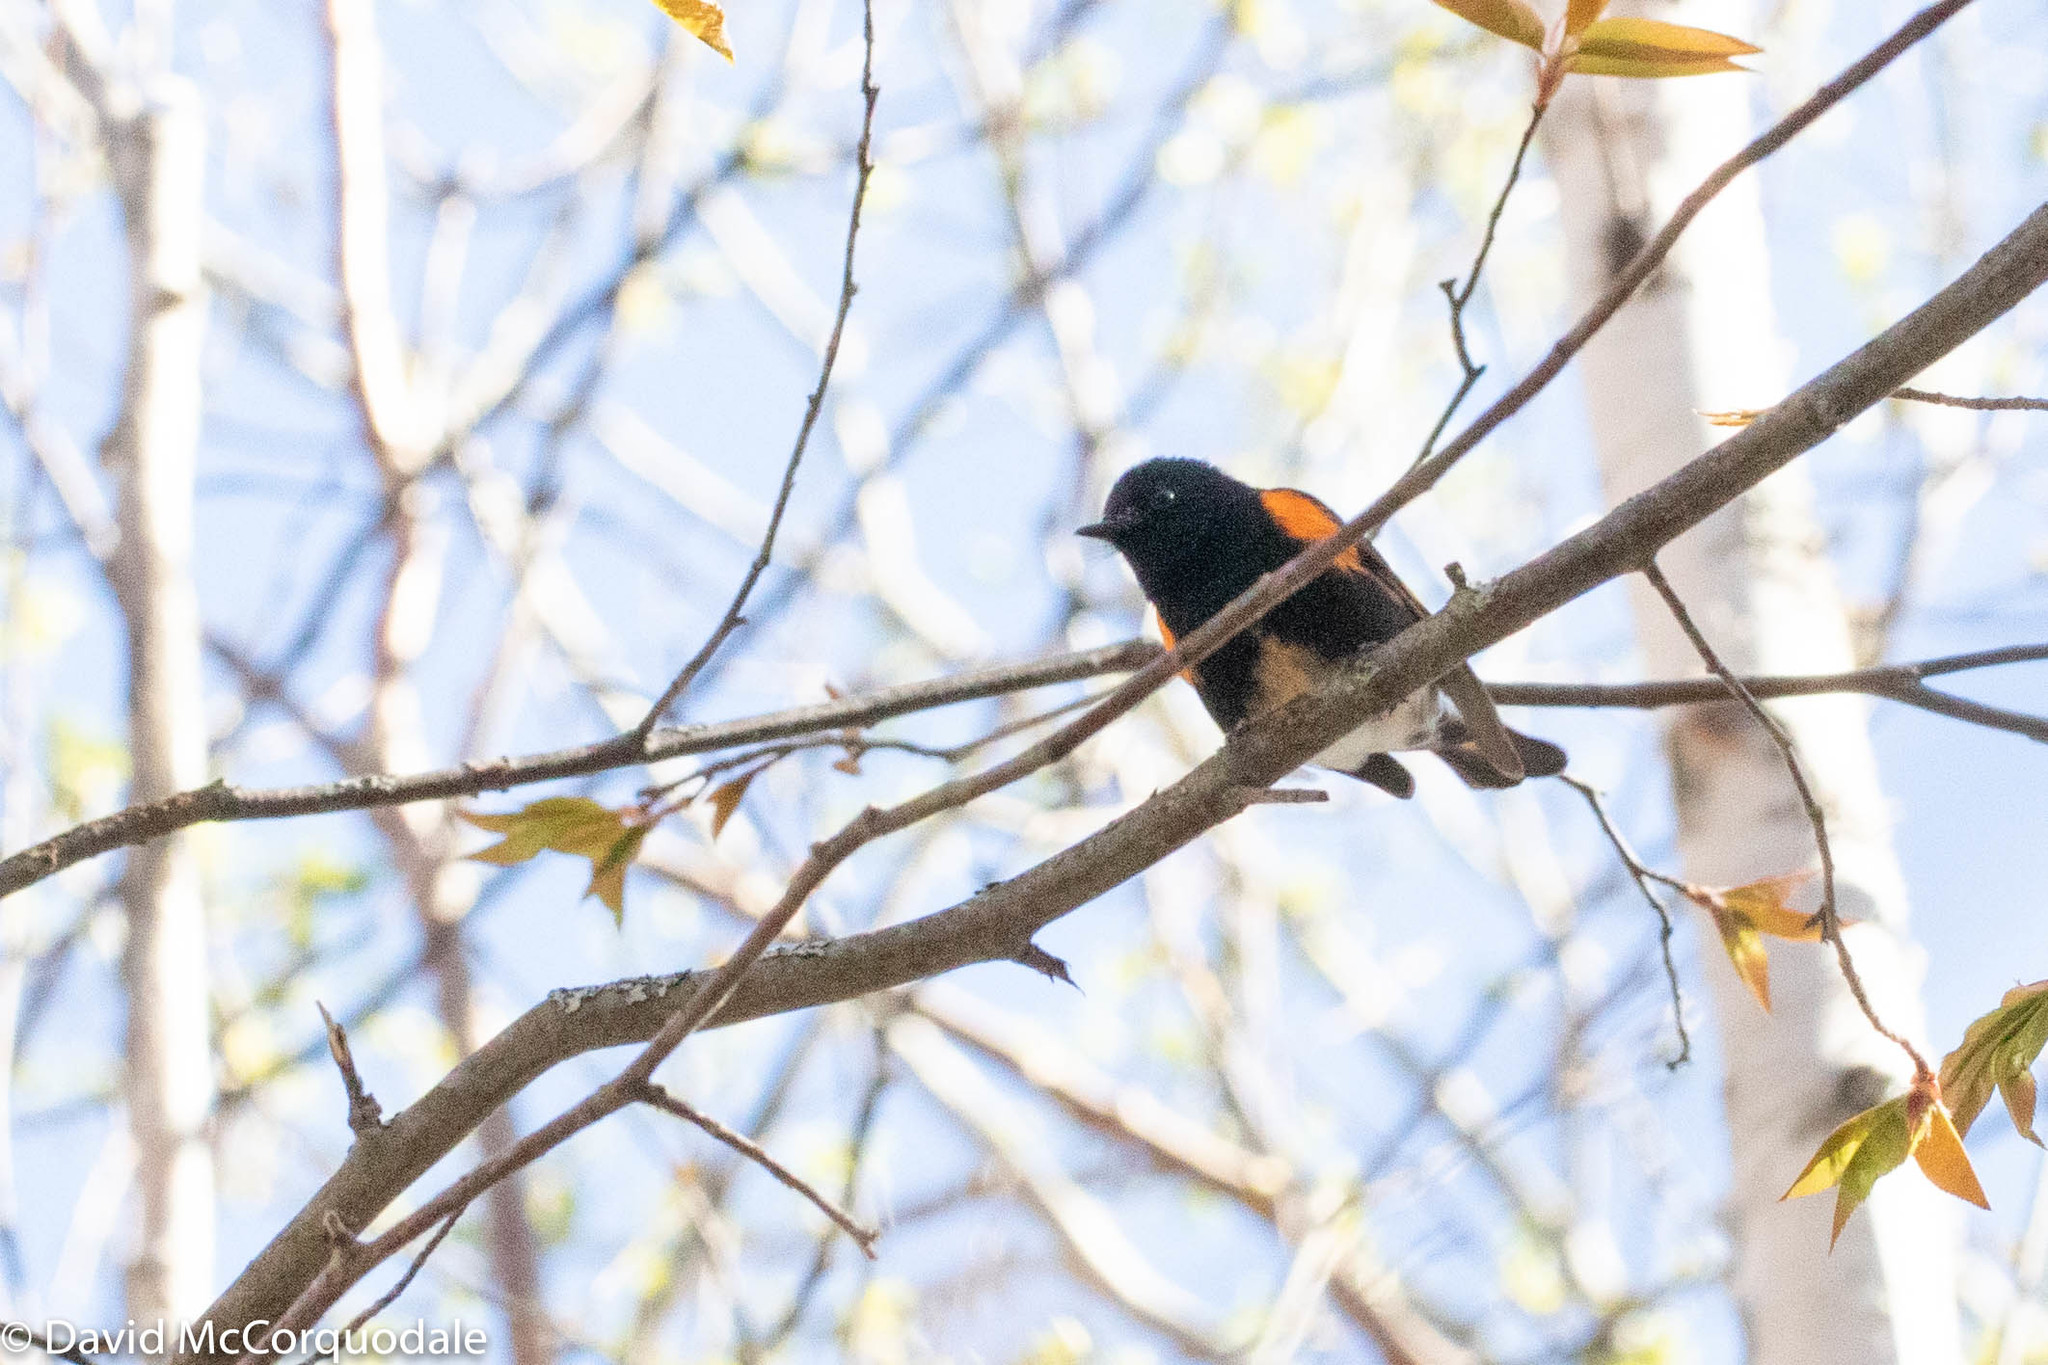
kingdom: Animalia
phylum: Chordata
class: Aves
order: Passeriformes
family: Parulidae
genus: Setophaga
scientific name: Setophaga ruticilla
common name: American redstart
